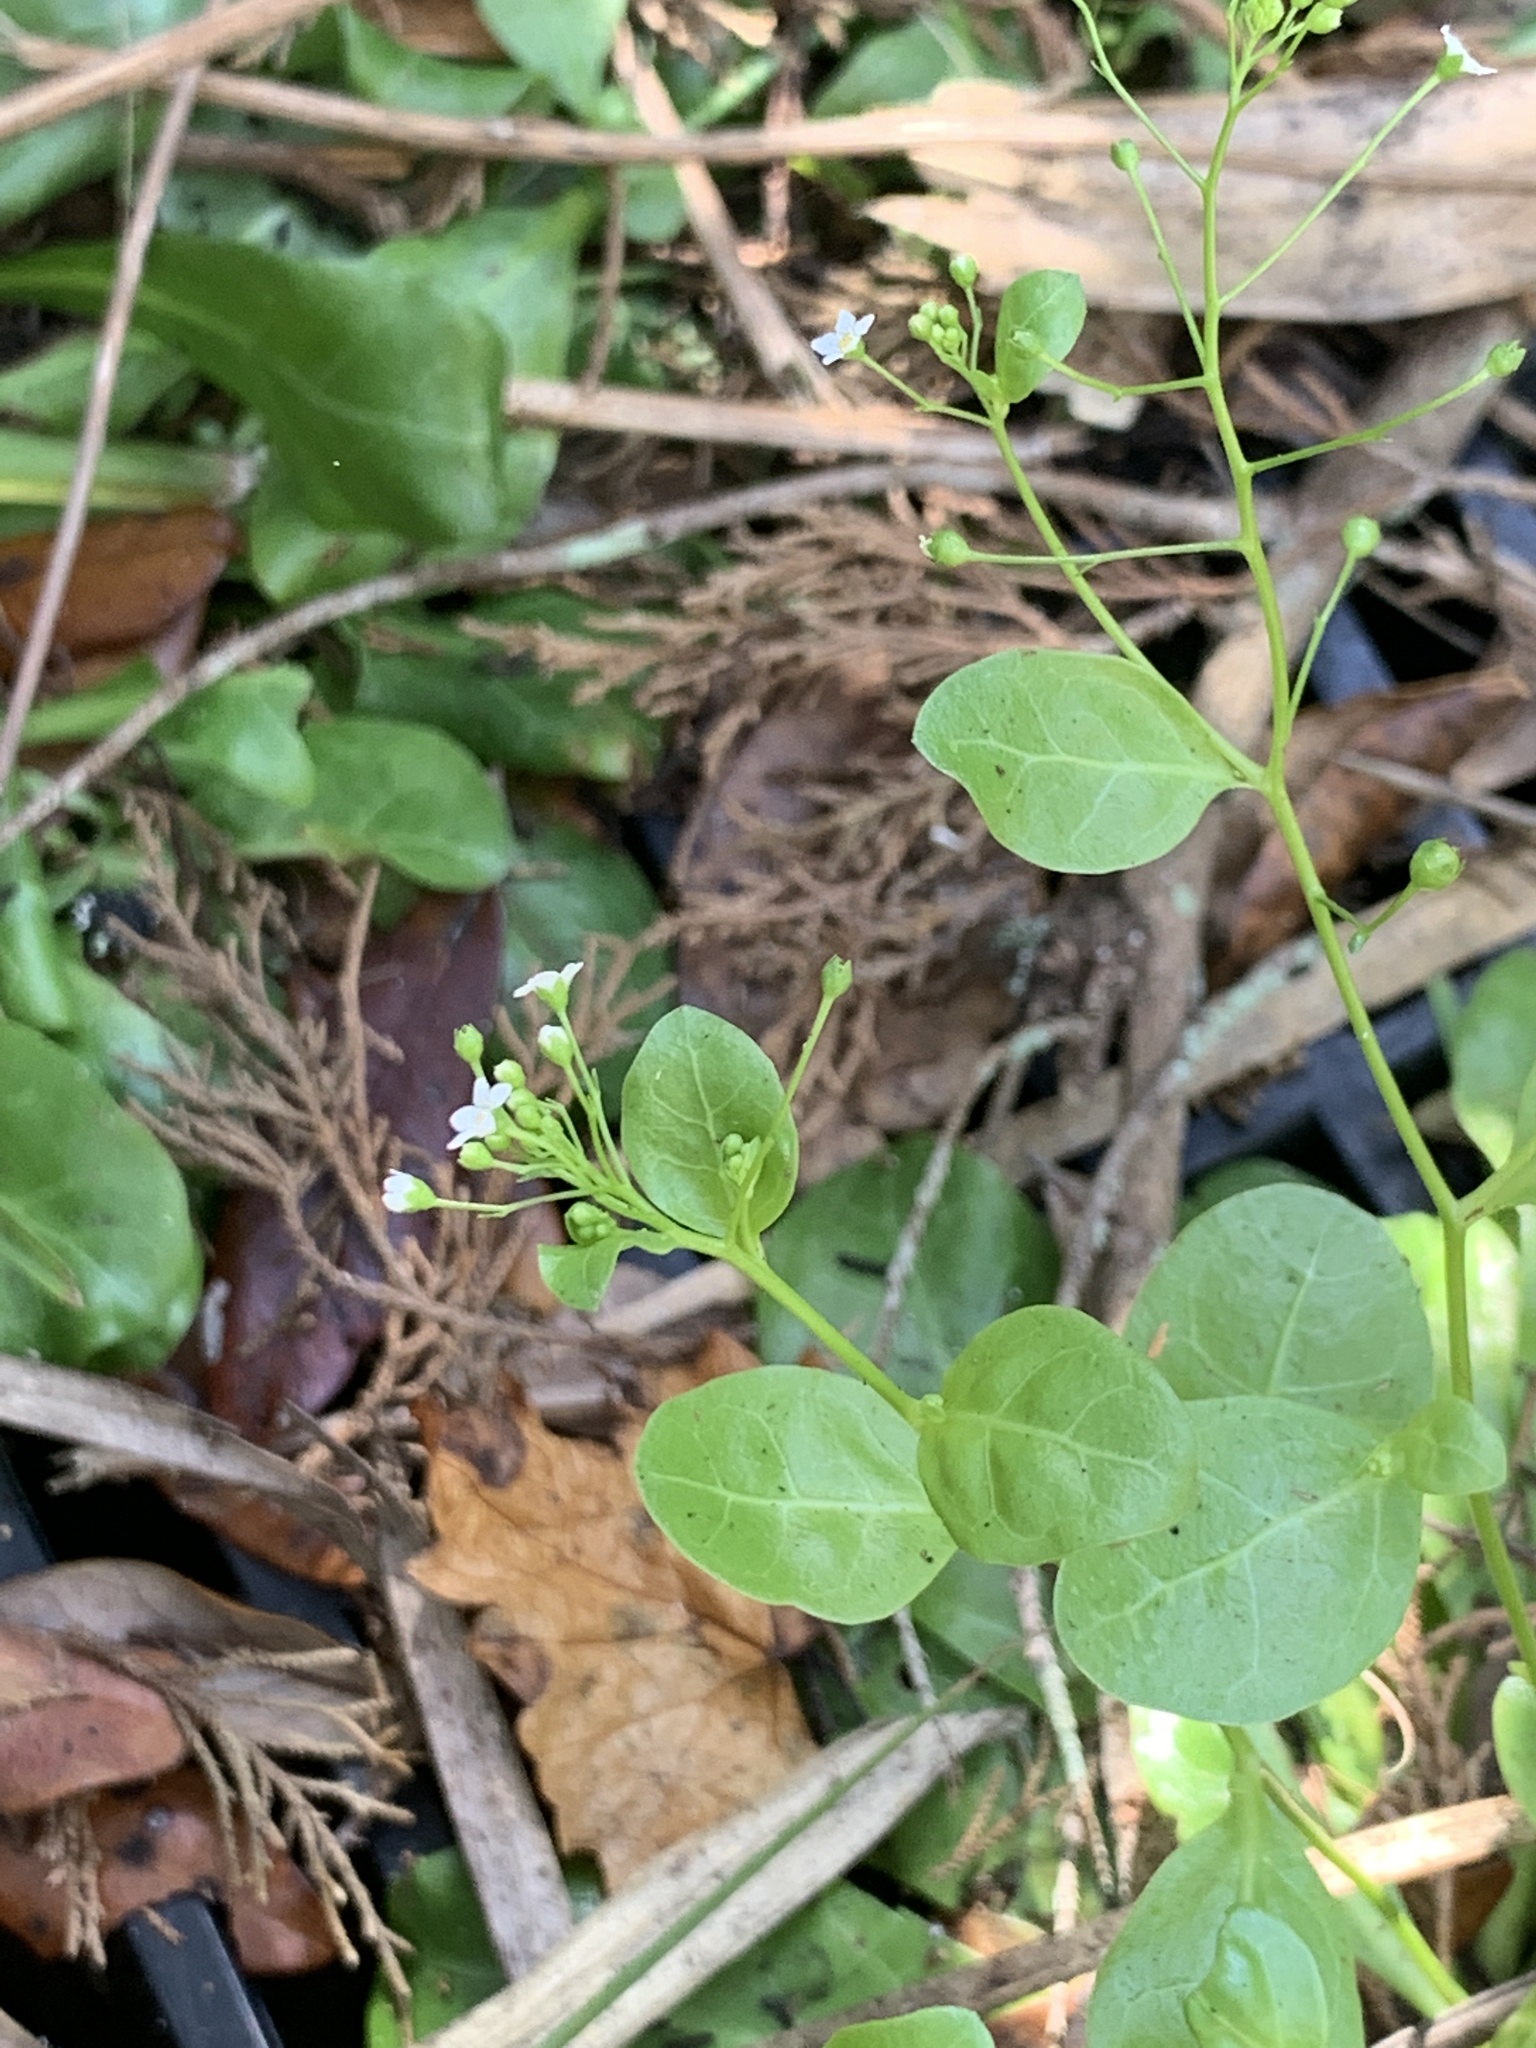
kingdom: Plantae
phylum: Tracheophyta
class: Magnoliopsida
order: Ericales
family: Primulaceae
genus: Samolus
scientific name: Samolus parviflorus
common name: False water pimpernel
